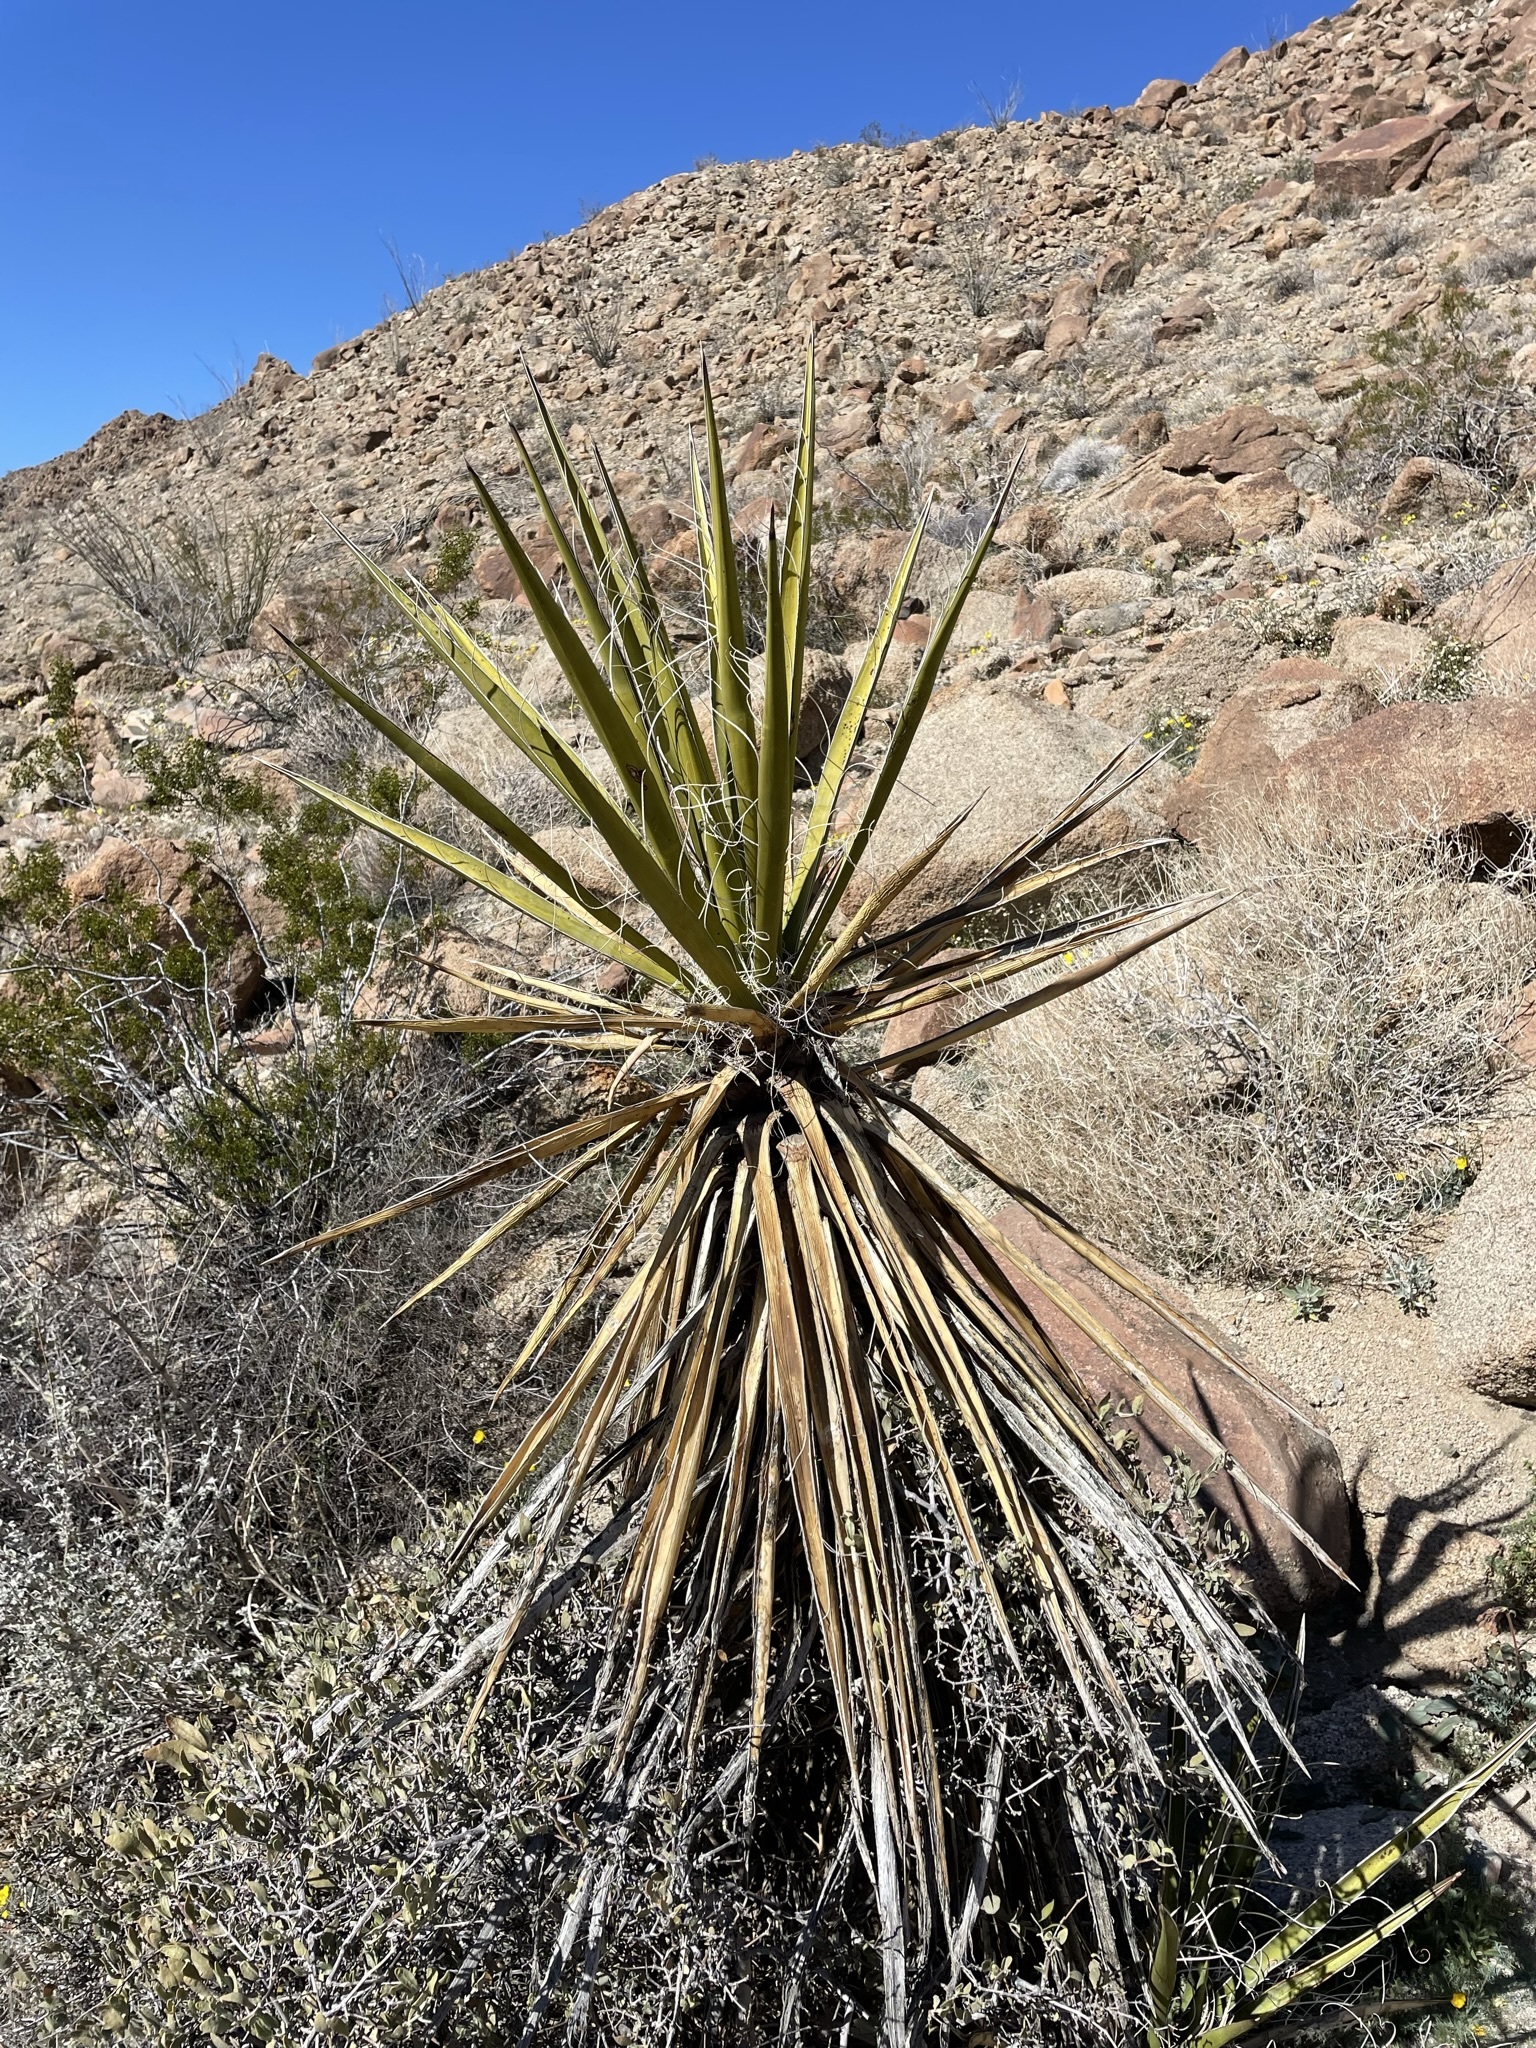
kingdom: Plantae
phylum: Tracheophyta
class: Liliopsida
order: Asparagales
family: Asparagaceae
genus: Yucca
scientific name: Yucca schidigera
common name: Mojave yucca
